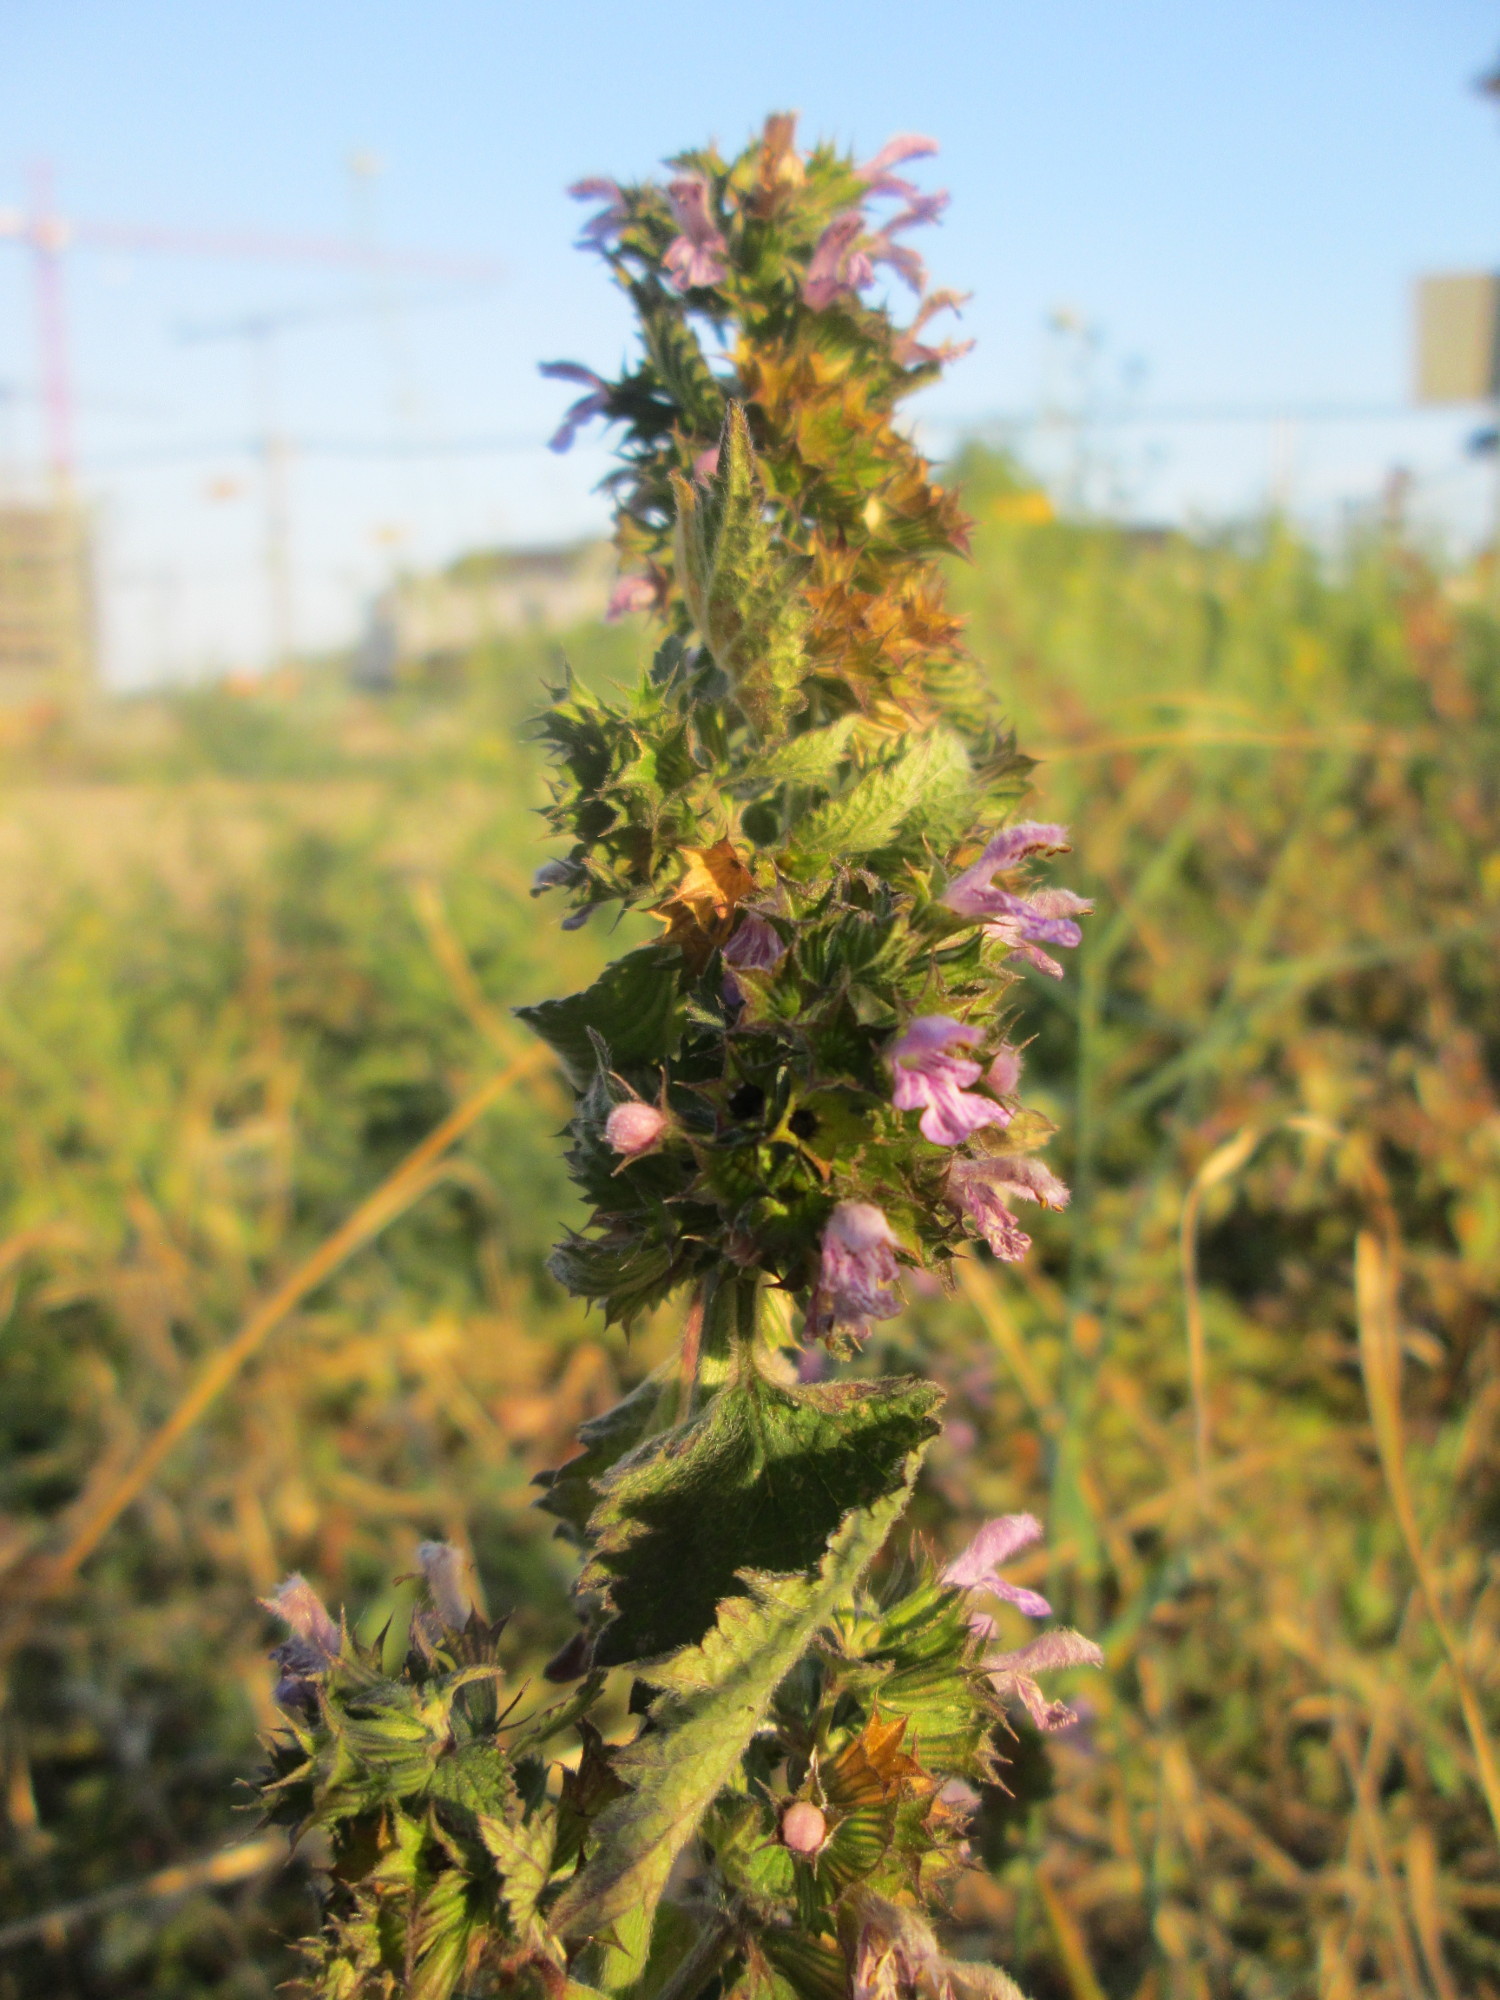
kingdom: Plantae
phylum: Tracheophyta
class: Magnoliopsida
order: Lamiales
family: Lamiaceae
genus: Ballota
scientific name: Ballota nigra
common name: Black horehound
